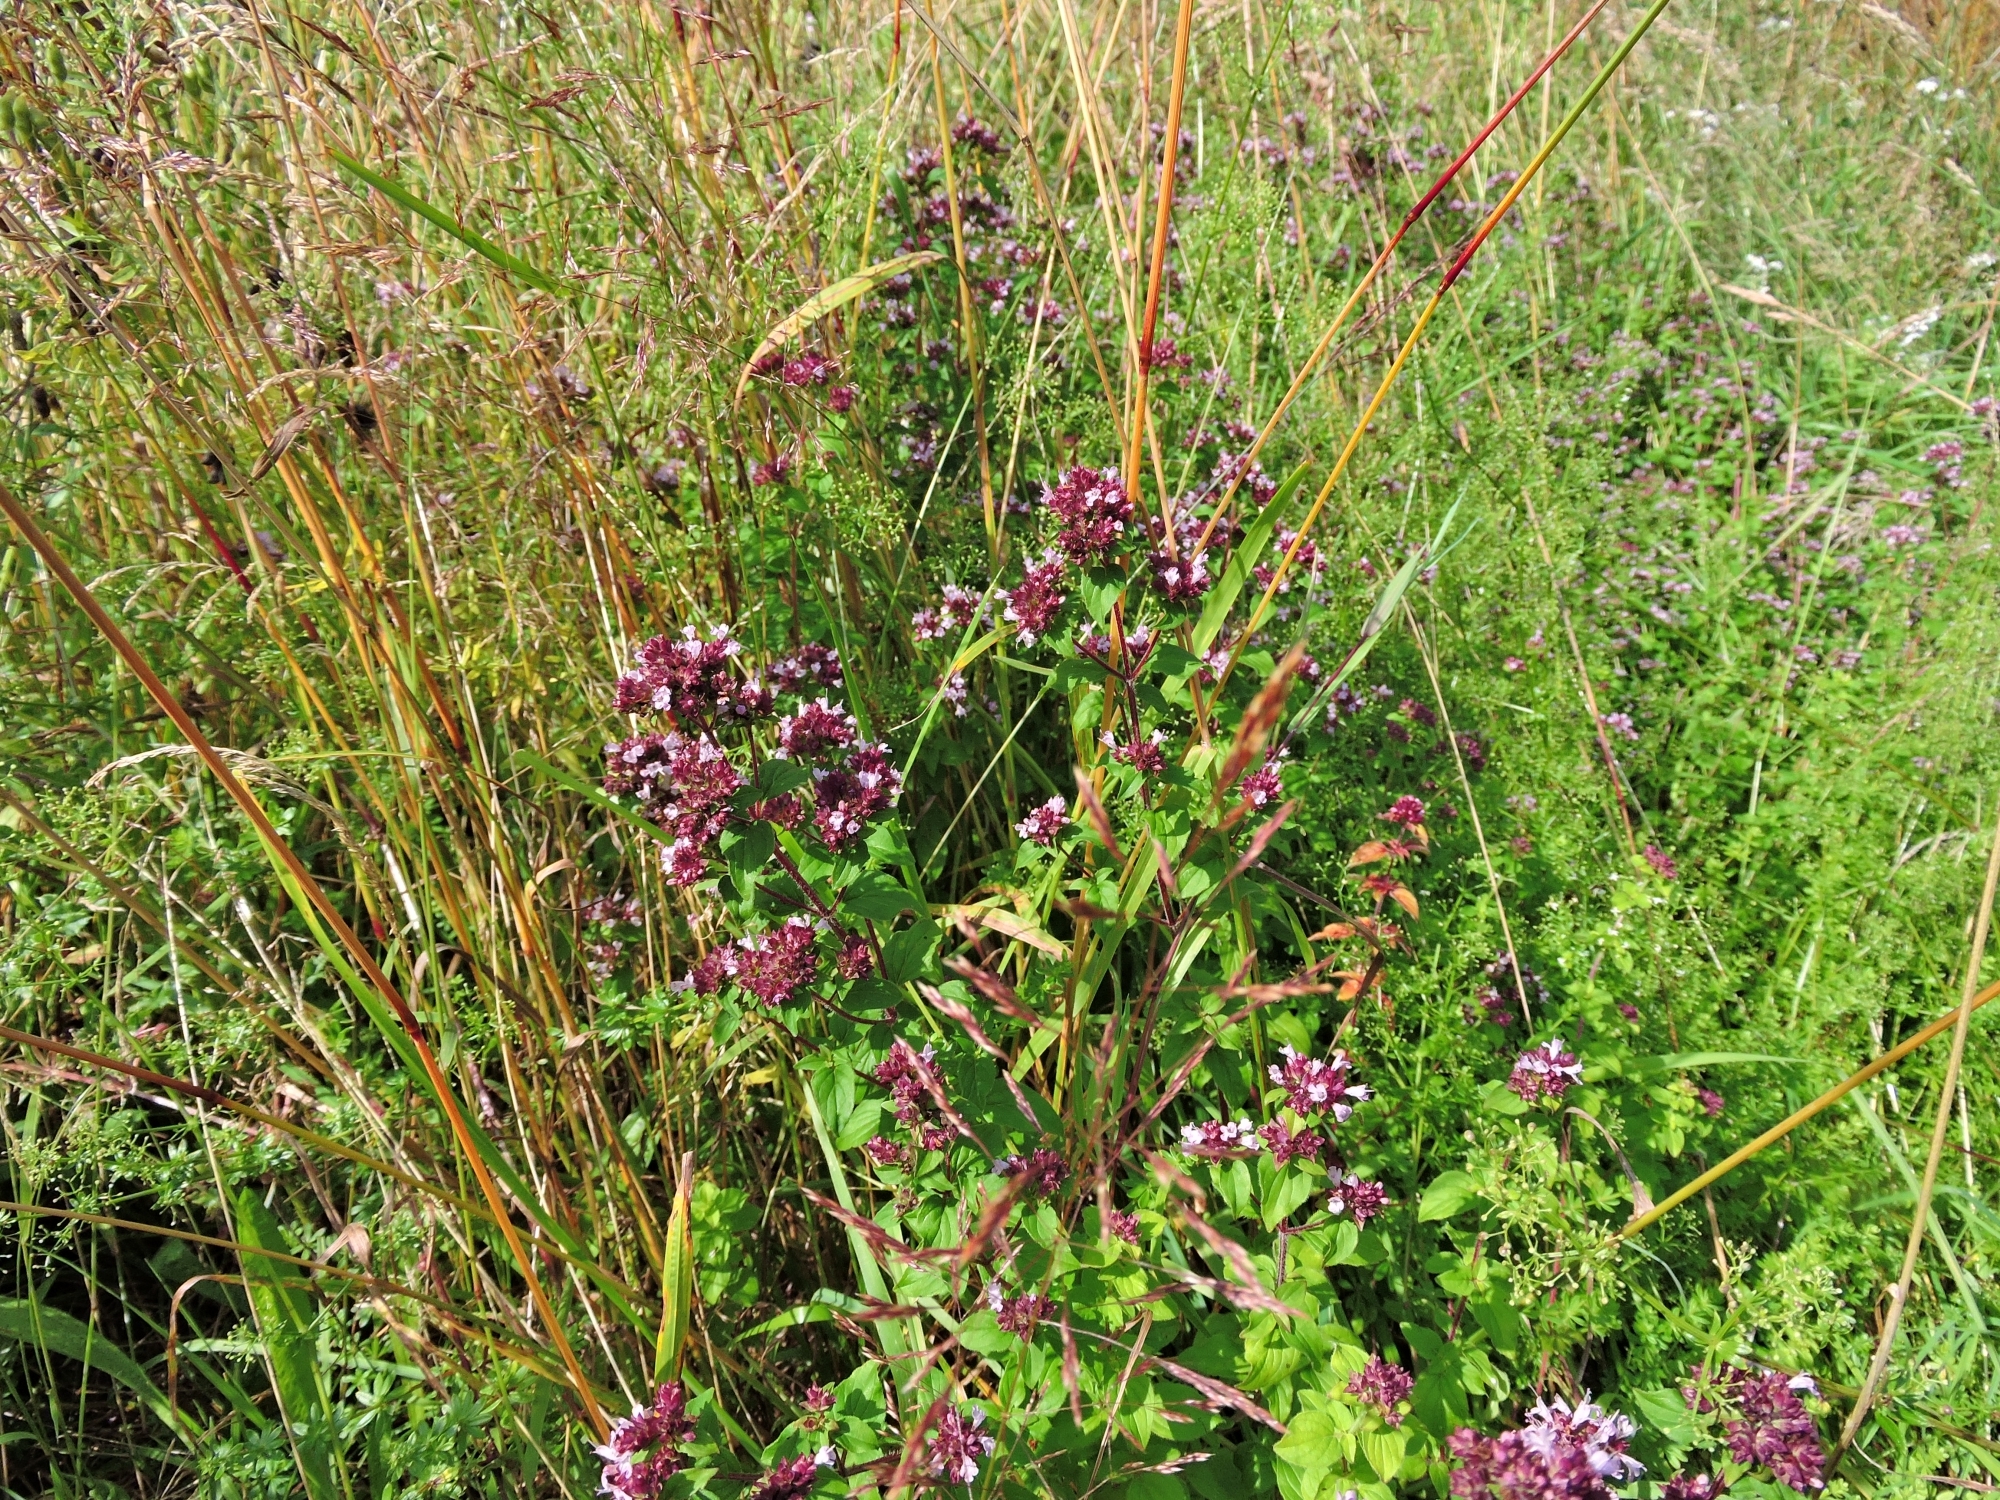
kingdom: Plantae
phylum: Tracheophyta
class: Magnoliopsida
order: Lamiales
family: Lamiaceae
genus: Origanum
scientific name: Origanum vulgare
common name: Wild marjoram
